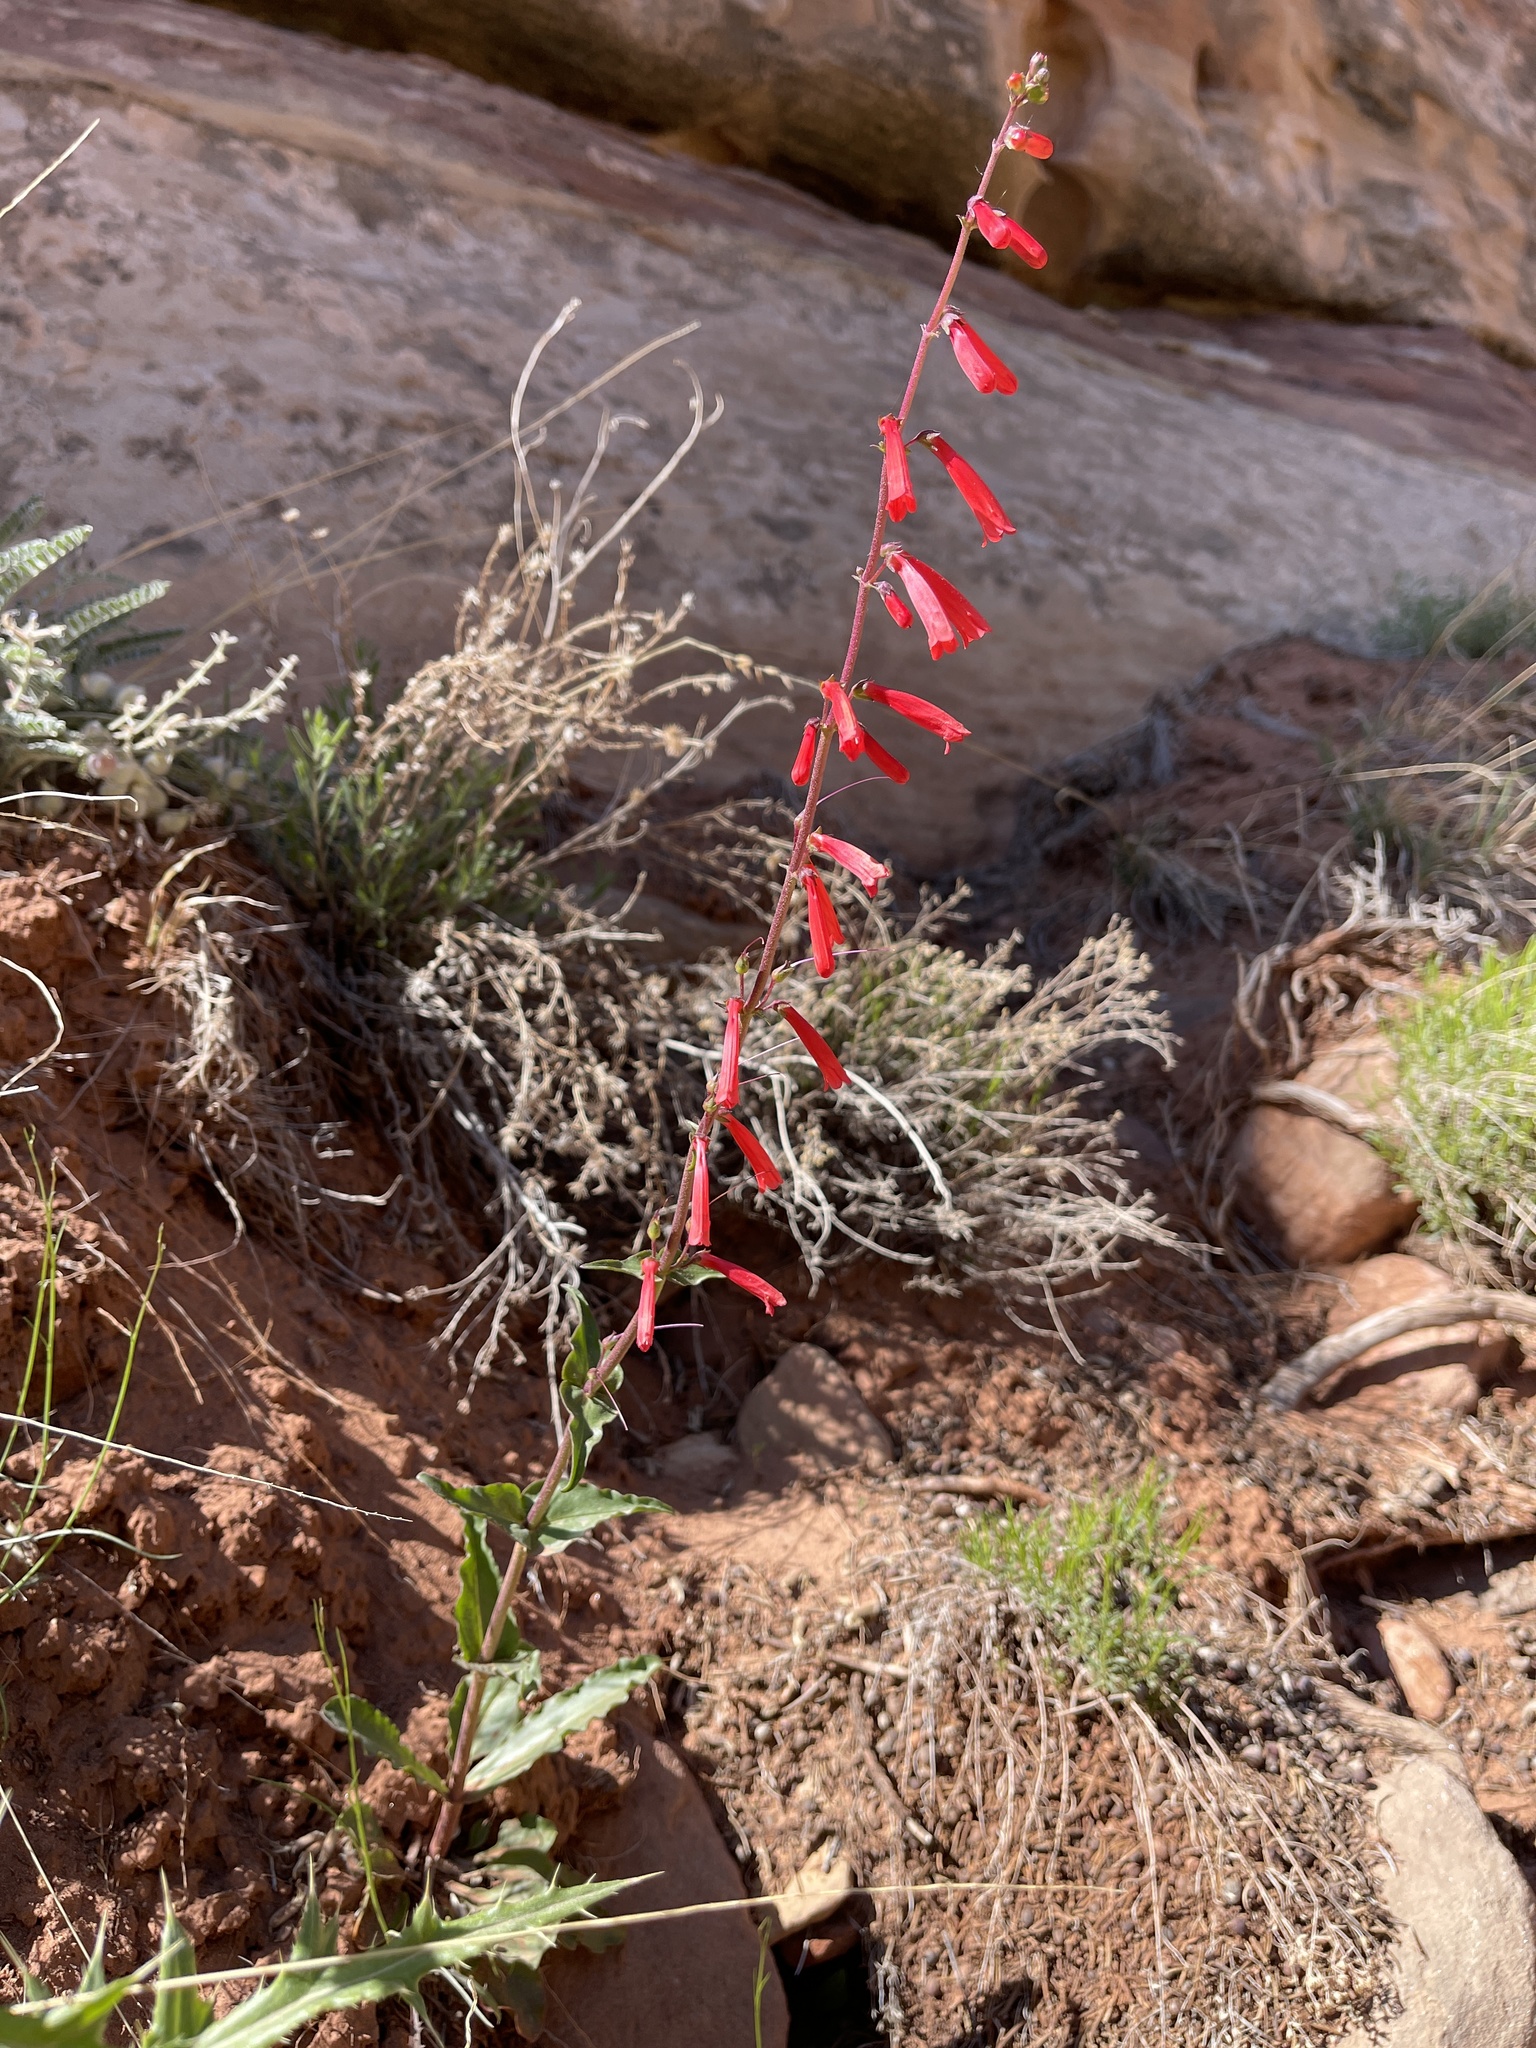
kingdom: Plantae
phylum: Tracheophyta
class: Magnoliopsida
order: Lamiales
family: Plantaginaceae
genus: Penstemon
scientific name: Penstemon eatonii
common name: Eaton's penstemon
